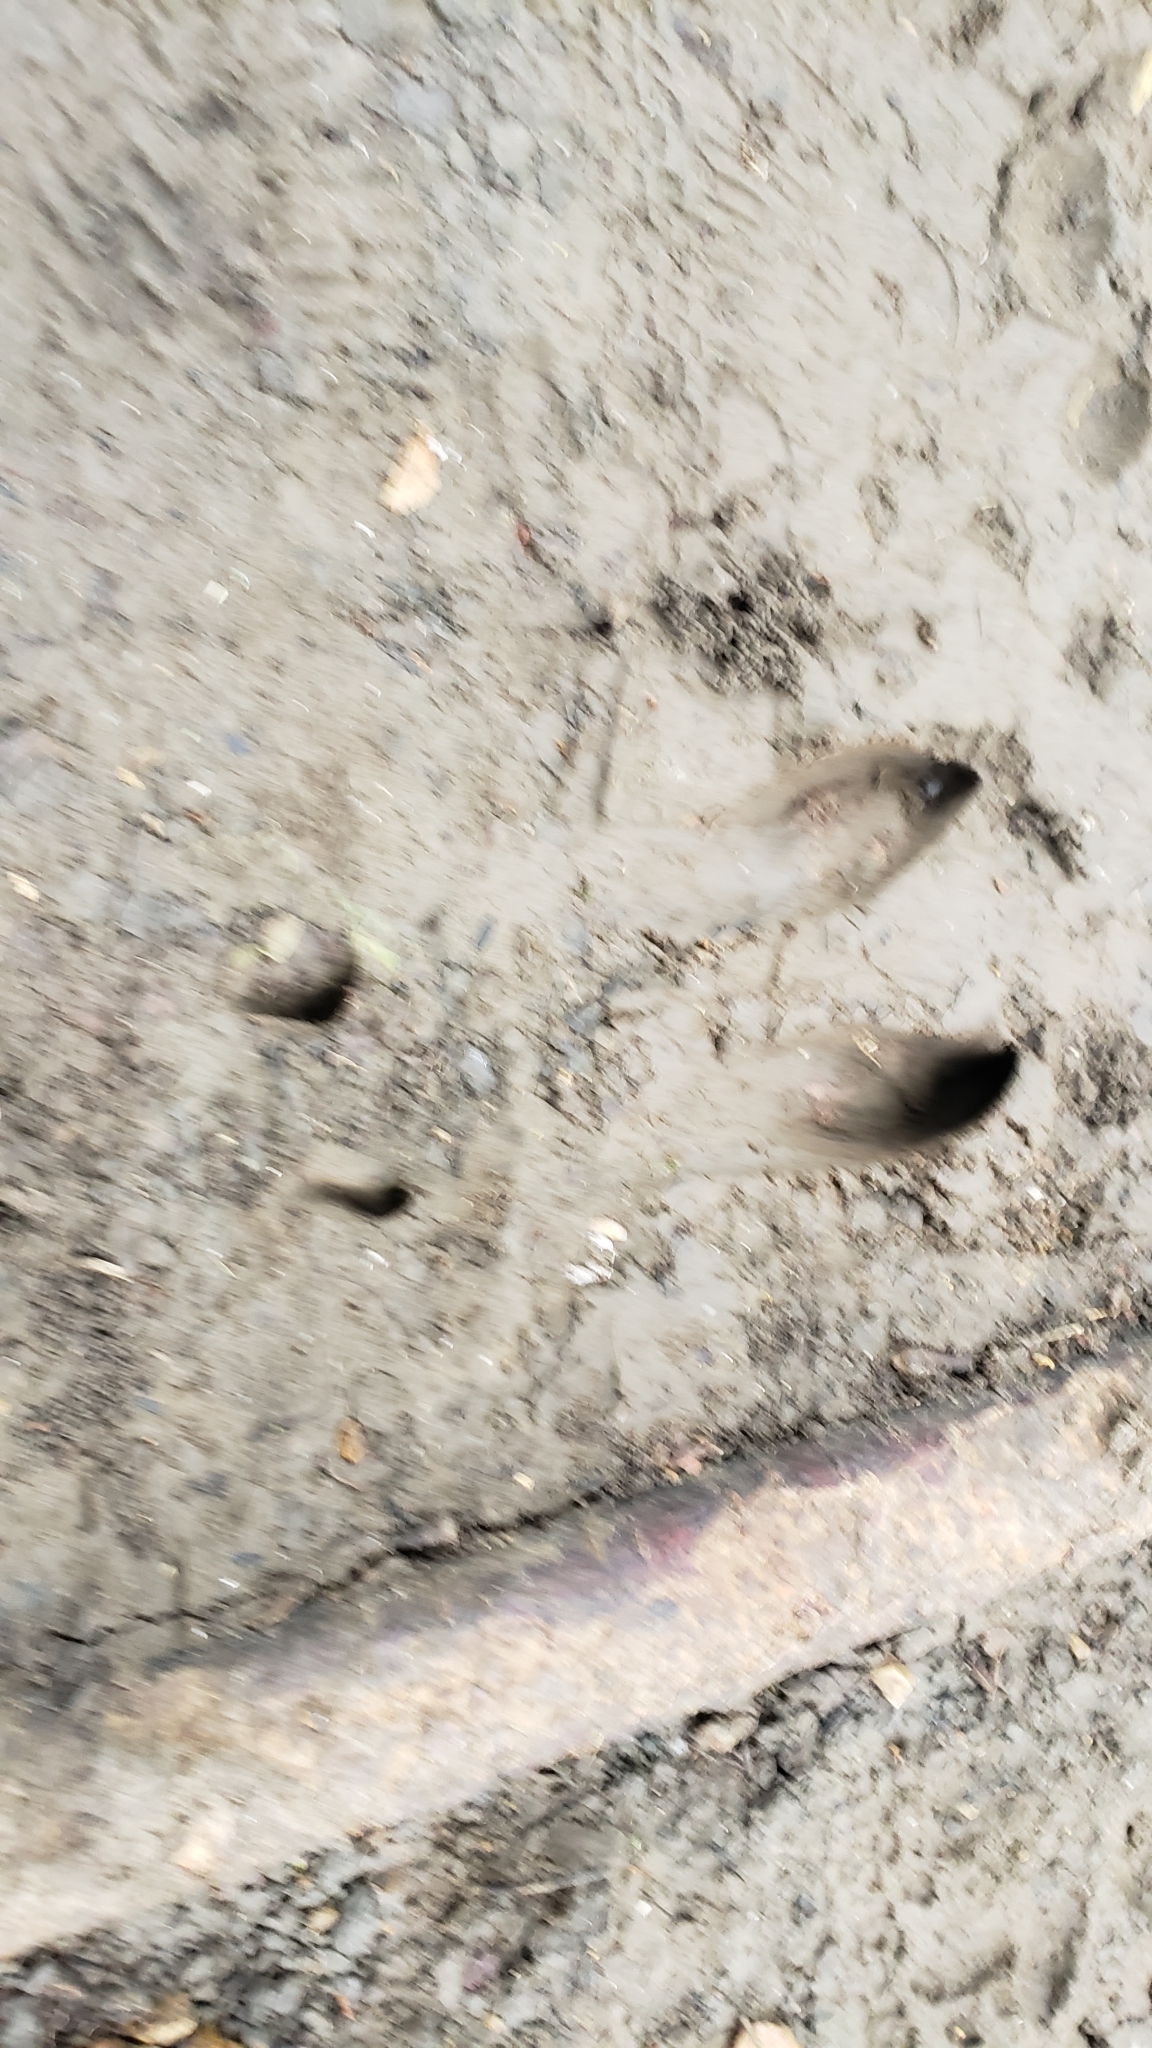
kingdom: Animalia
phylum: Chordata
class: Mammalia
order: Artiodactyla
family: Cervidae
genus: Odocoileus
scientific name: Odocoileus virginianus
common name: White-tailed deer
